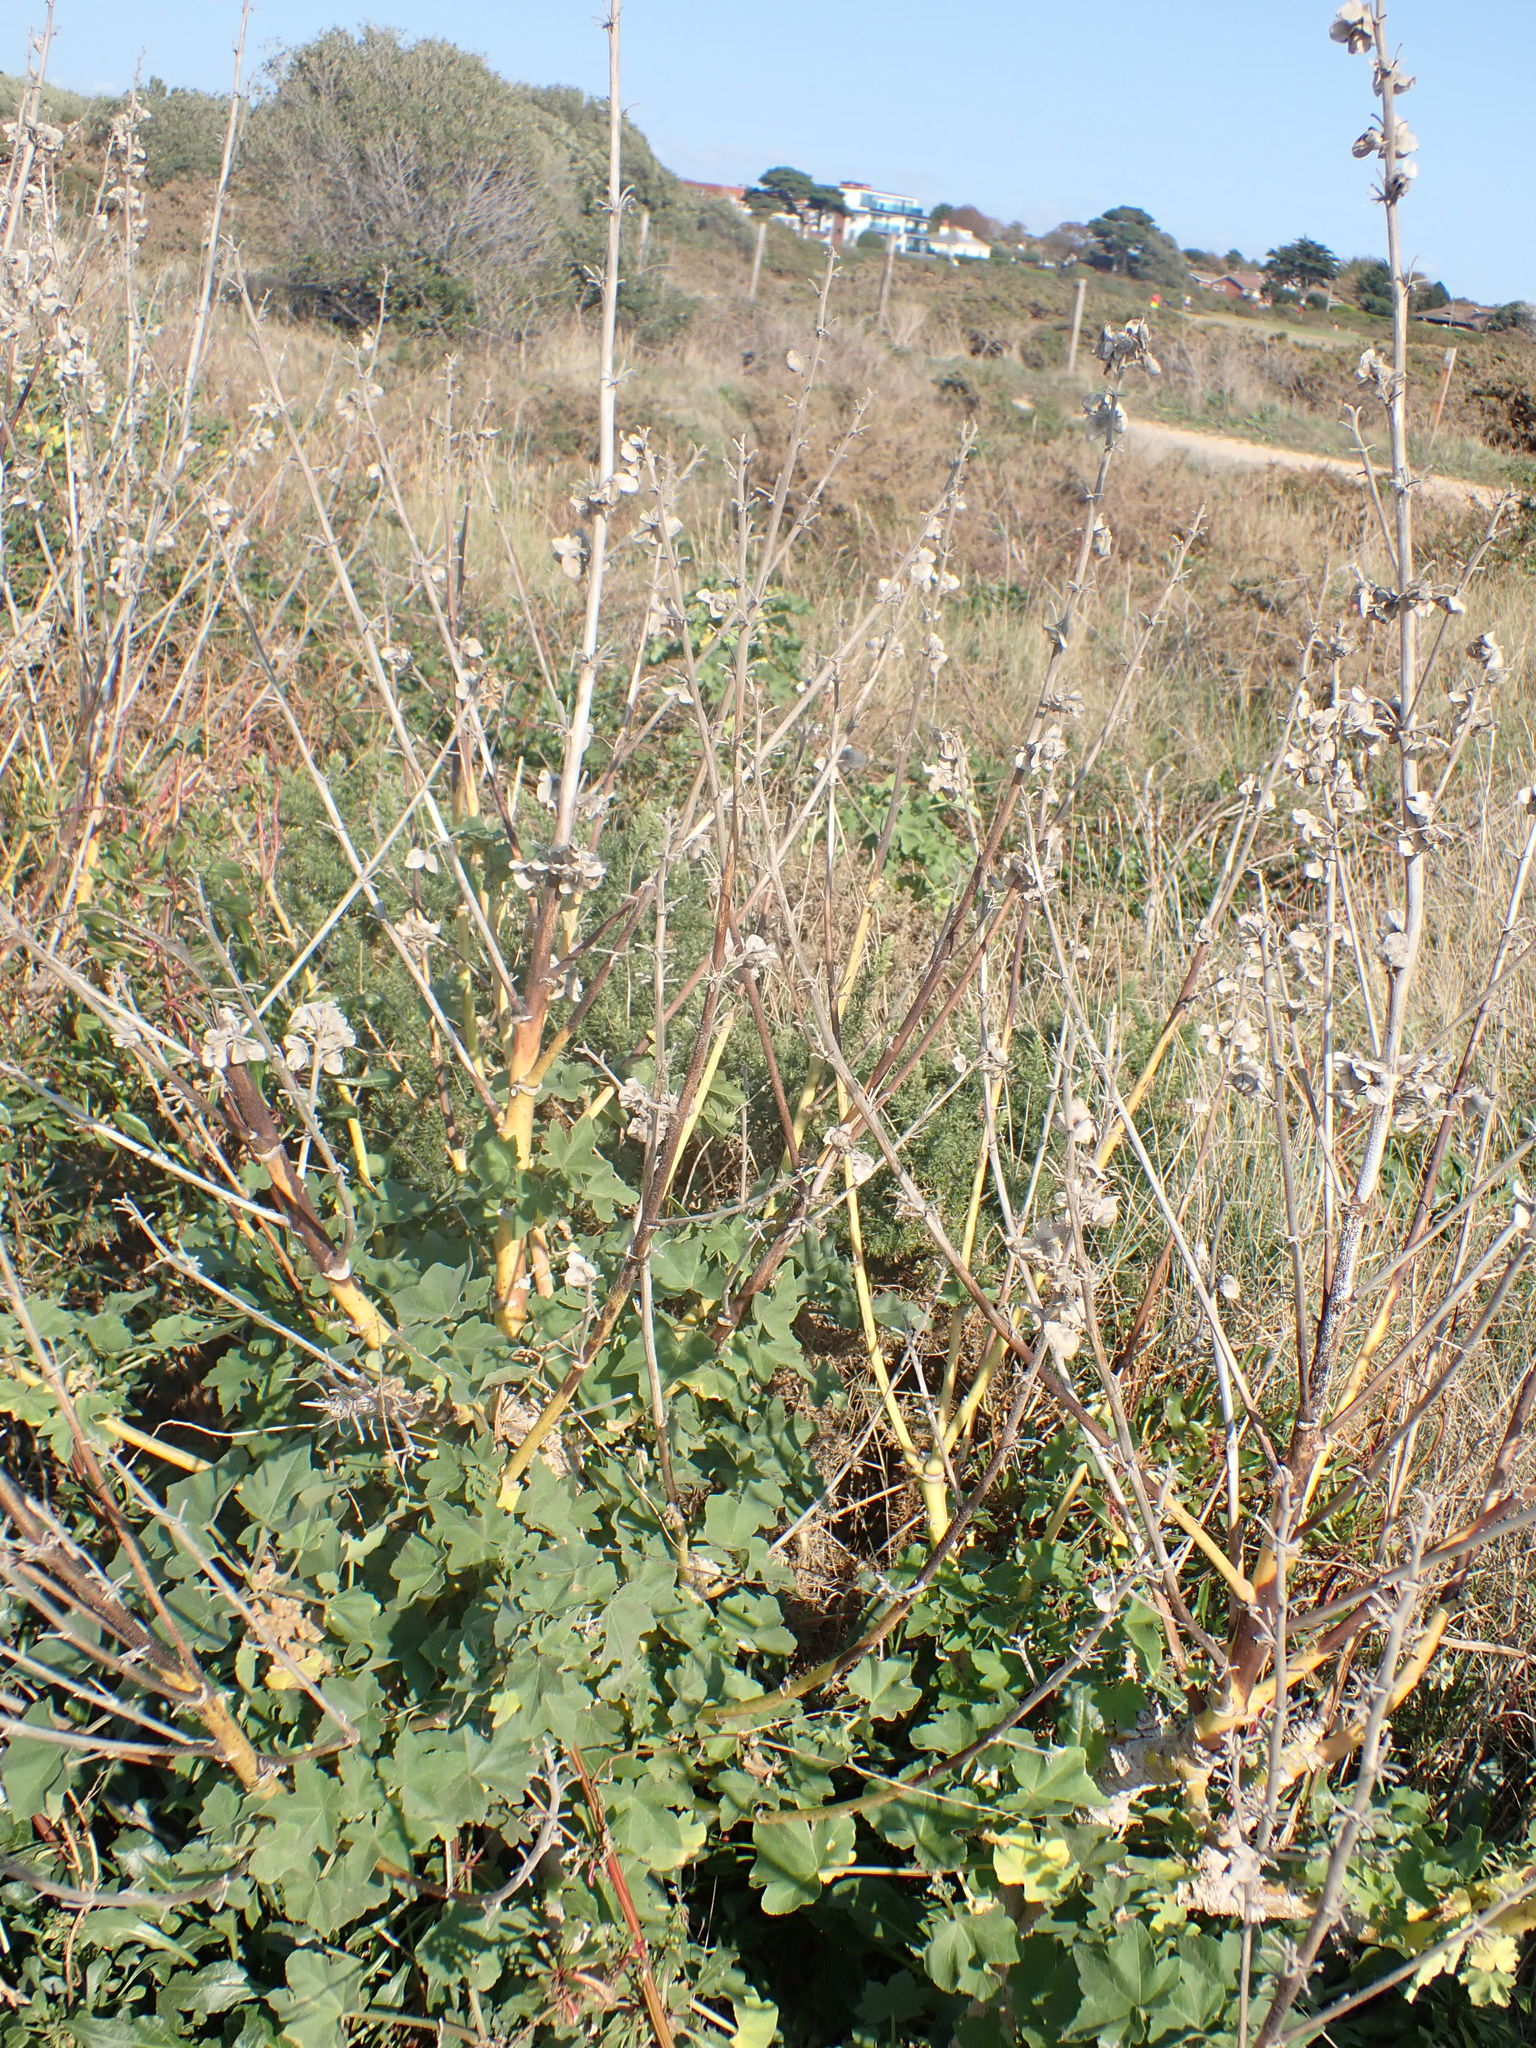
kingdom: Plantae
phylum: Tracheophyta
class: Magnoliopsida
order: Malvales
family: Malvaceae
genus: Malva
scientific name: Malva arborea
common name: Tree mallow
